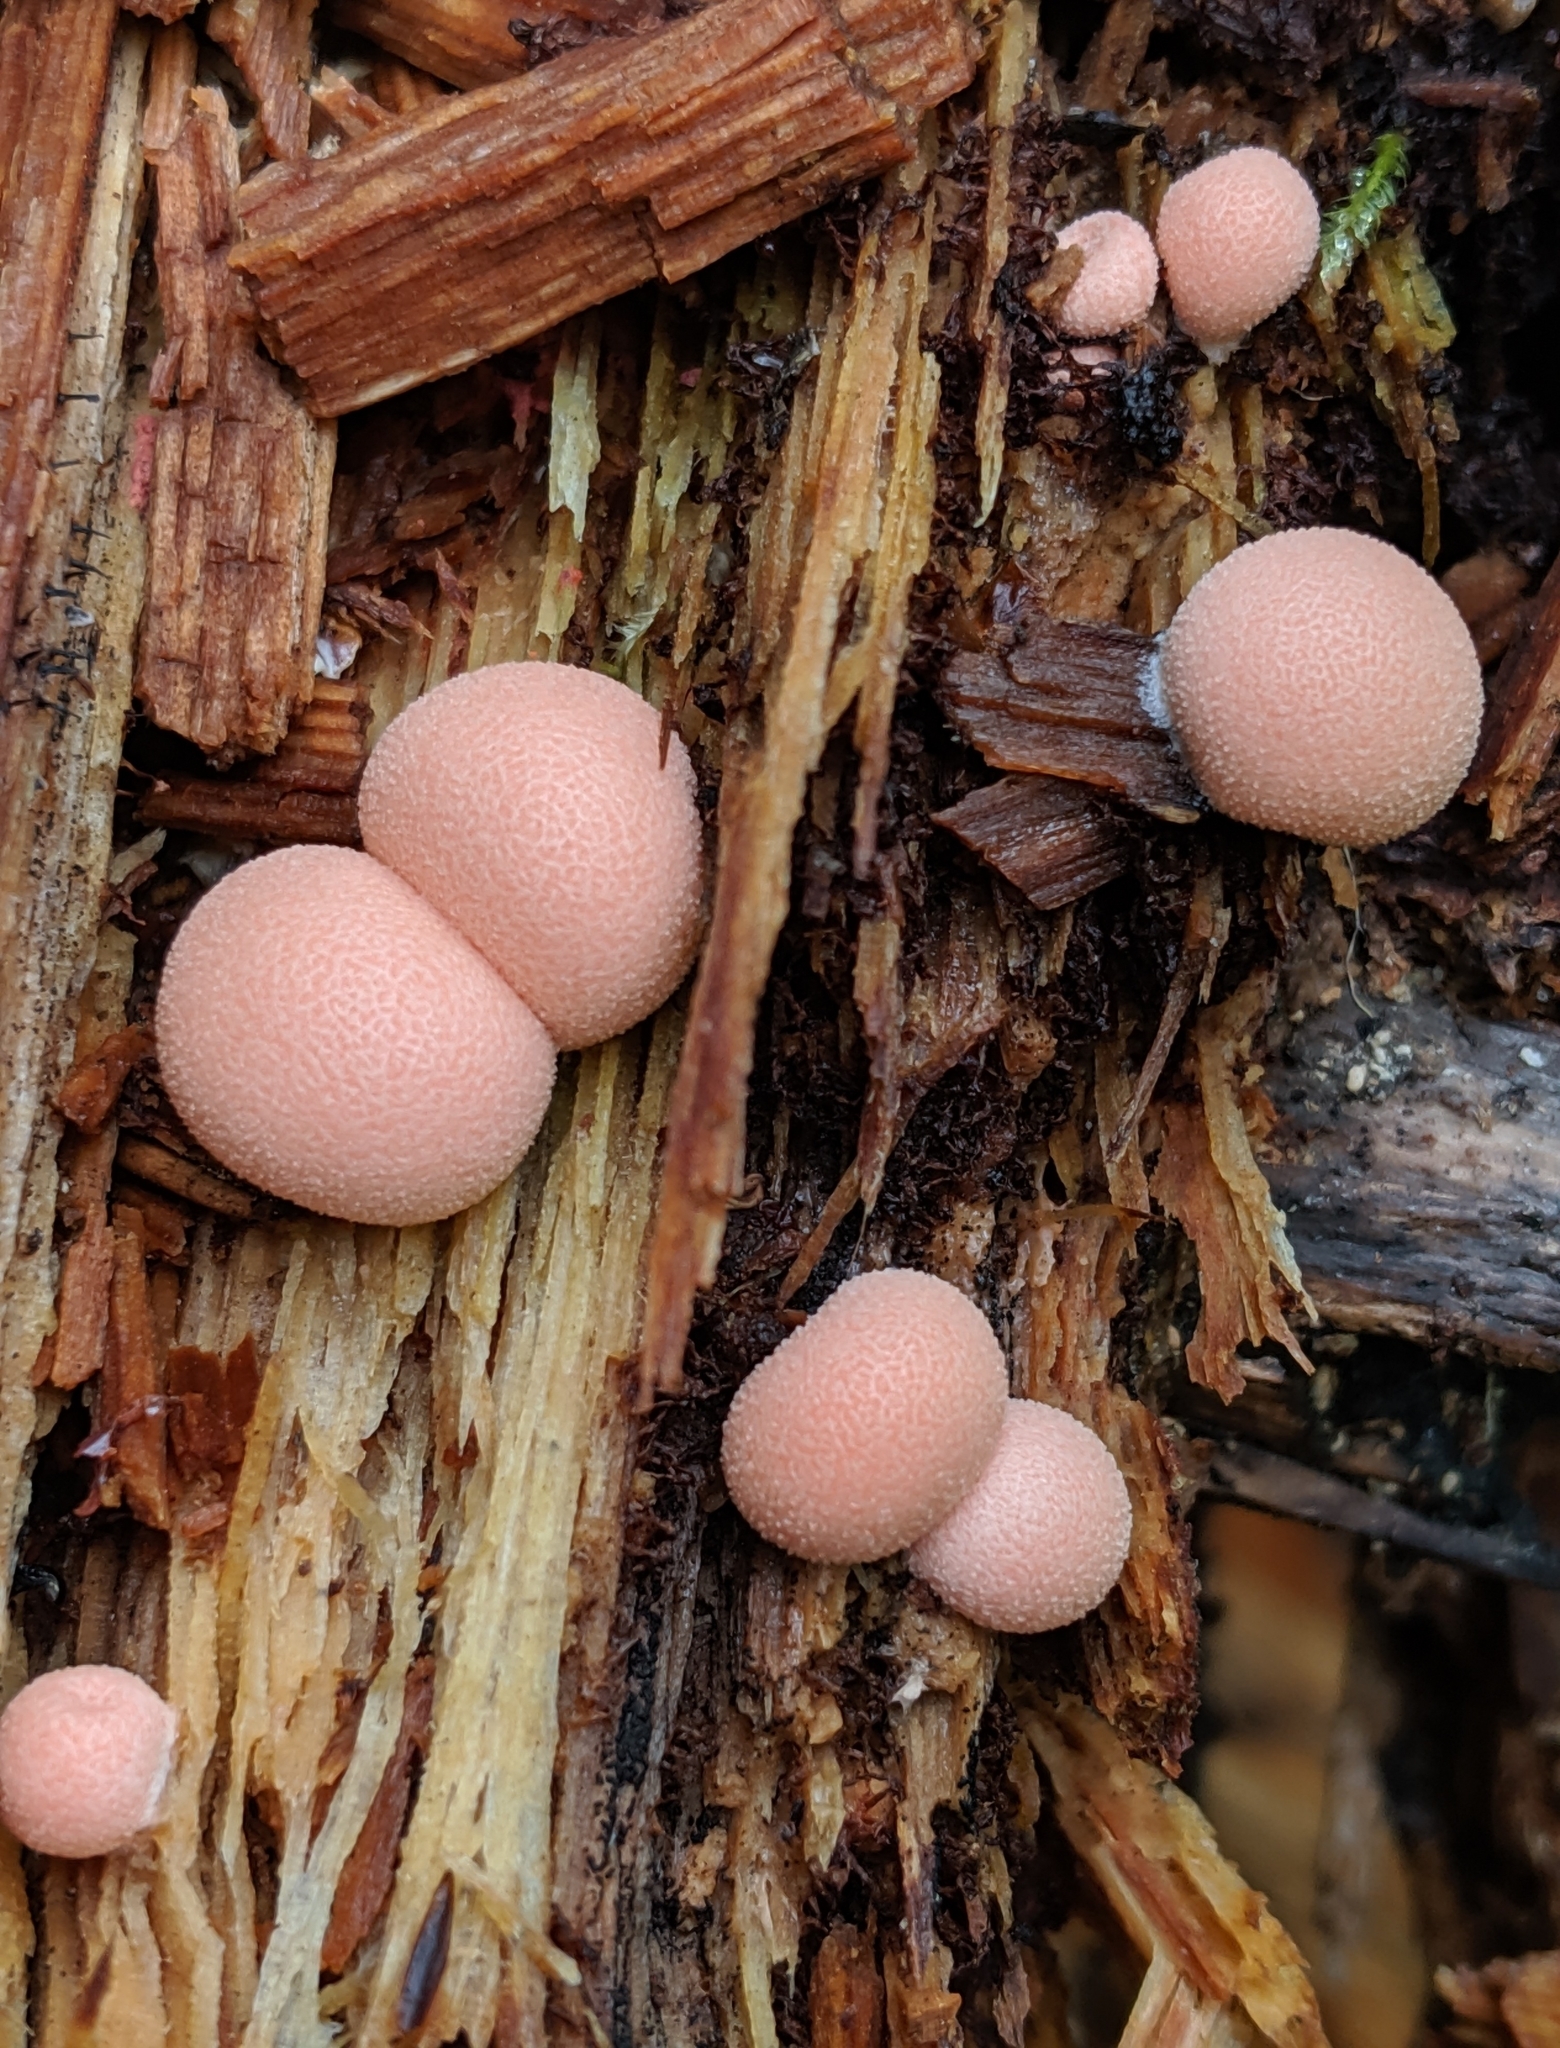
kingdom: Protozoa
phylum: Mycetozoa
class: Myxomycetes
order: Cribrariales
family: Tubiferaceae
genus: Lycogala
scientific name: Lycogala epidendrum
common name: Wolf's milk
